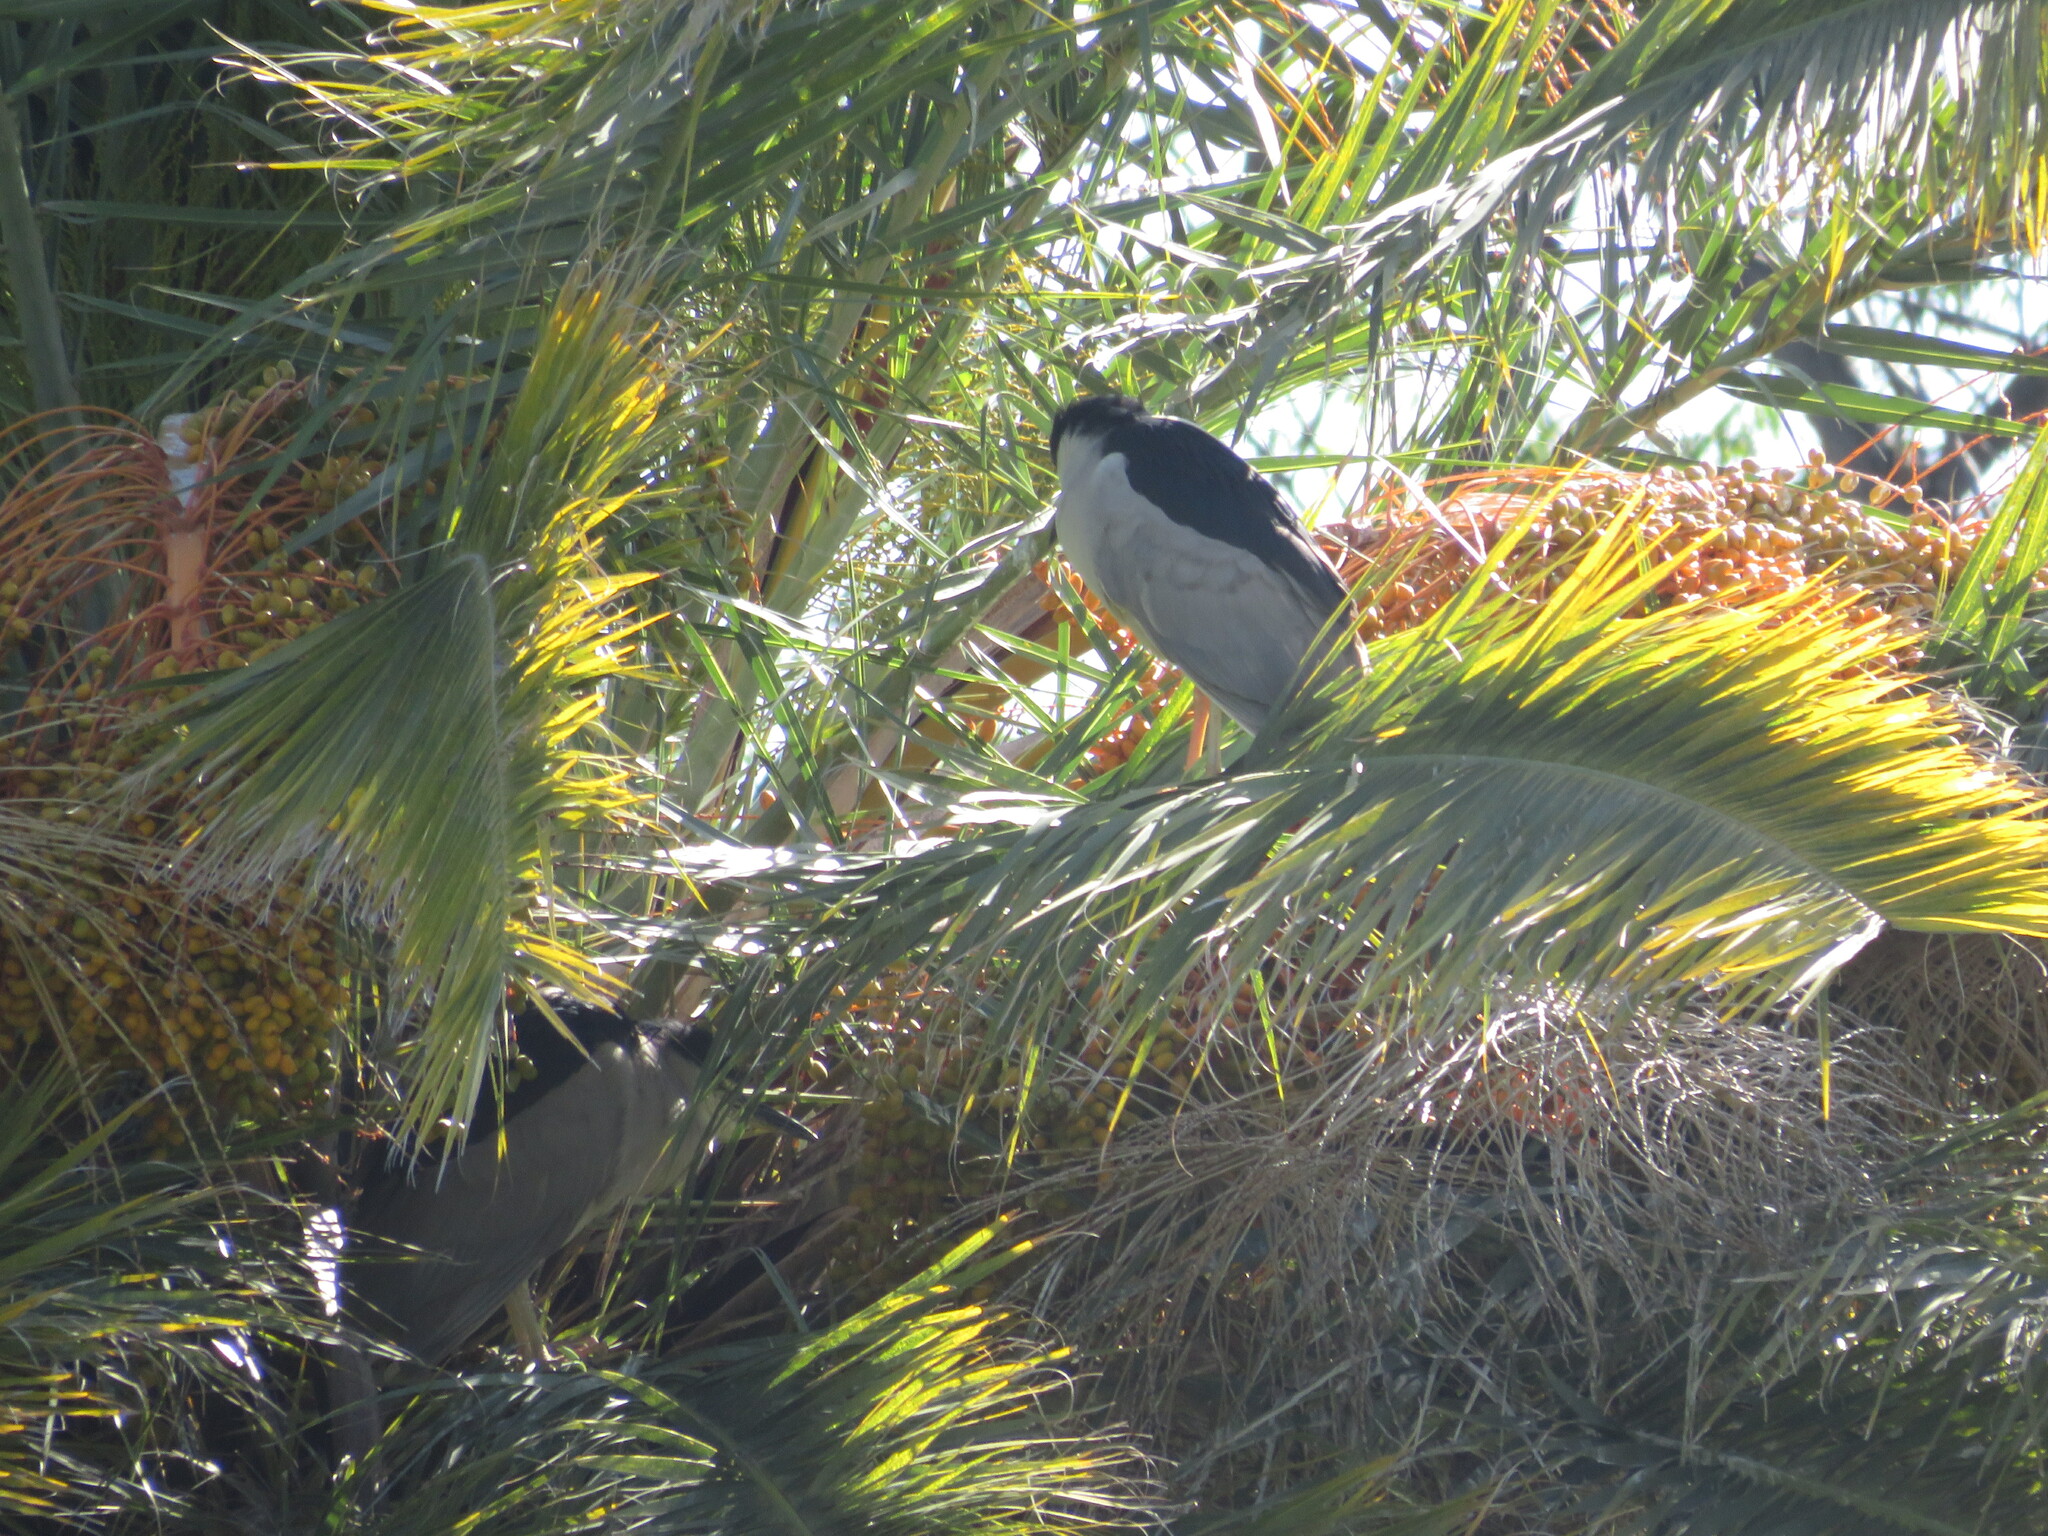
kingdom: Animalia
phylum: Chordata
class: Aves
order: Pelecaniformes
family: Ardeidae
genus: Nycticorax
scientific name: Nycticorax nycticorax
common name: Black-crowned night heron
